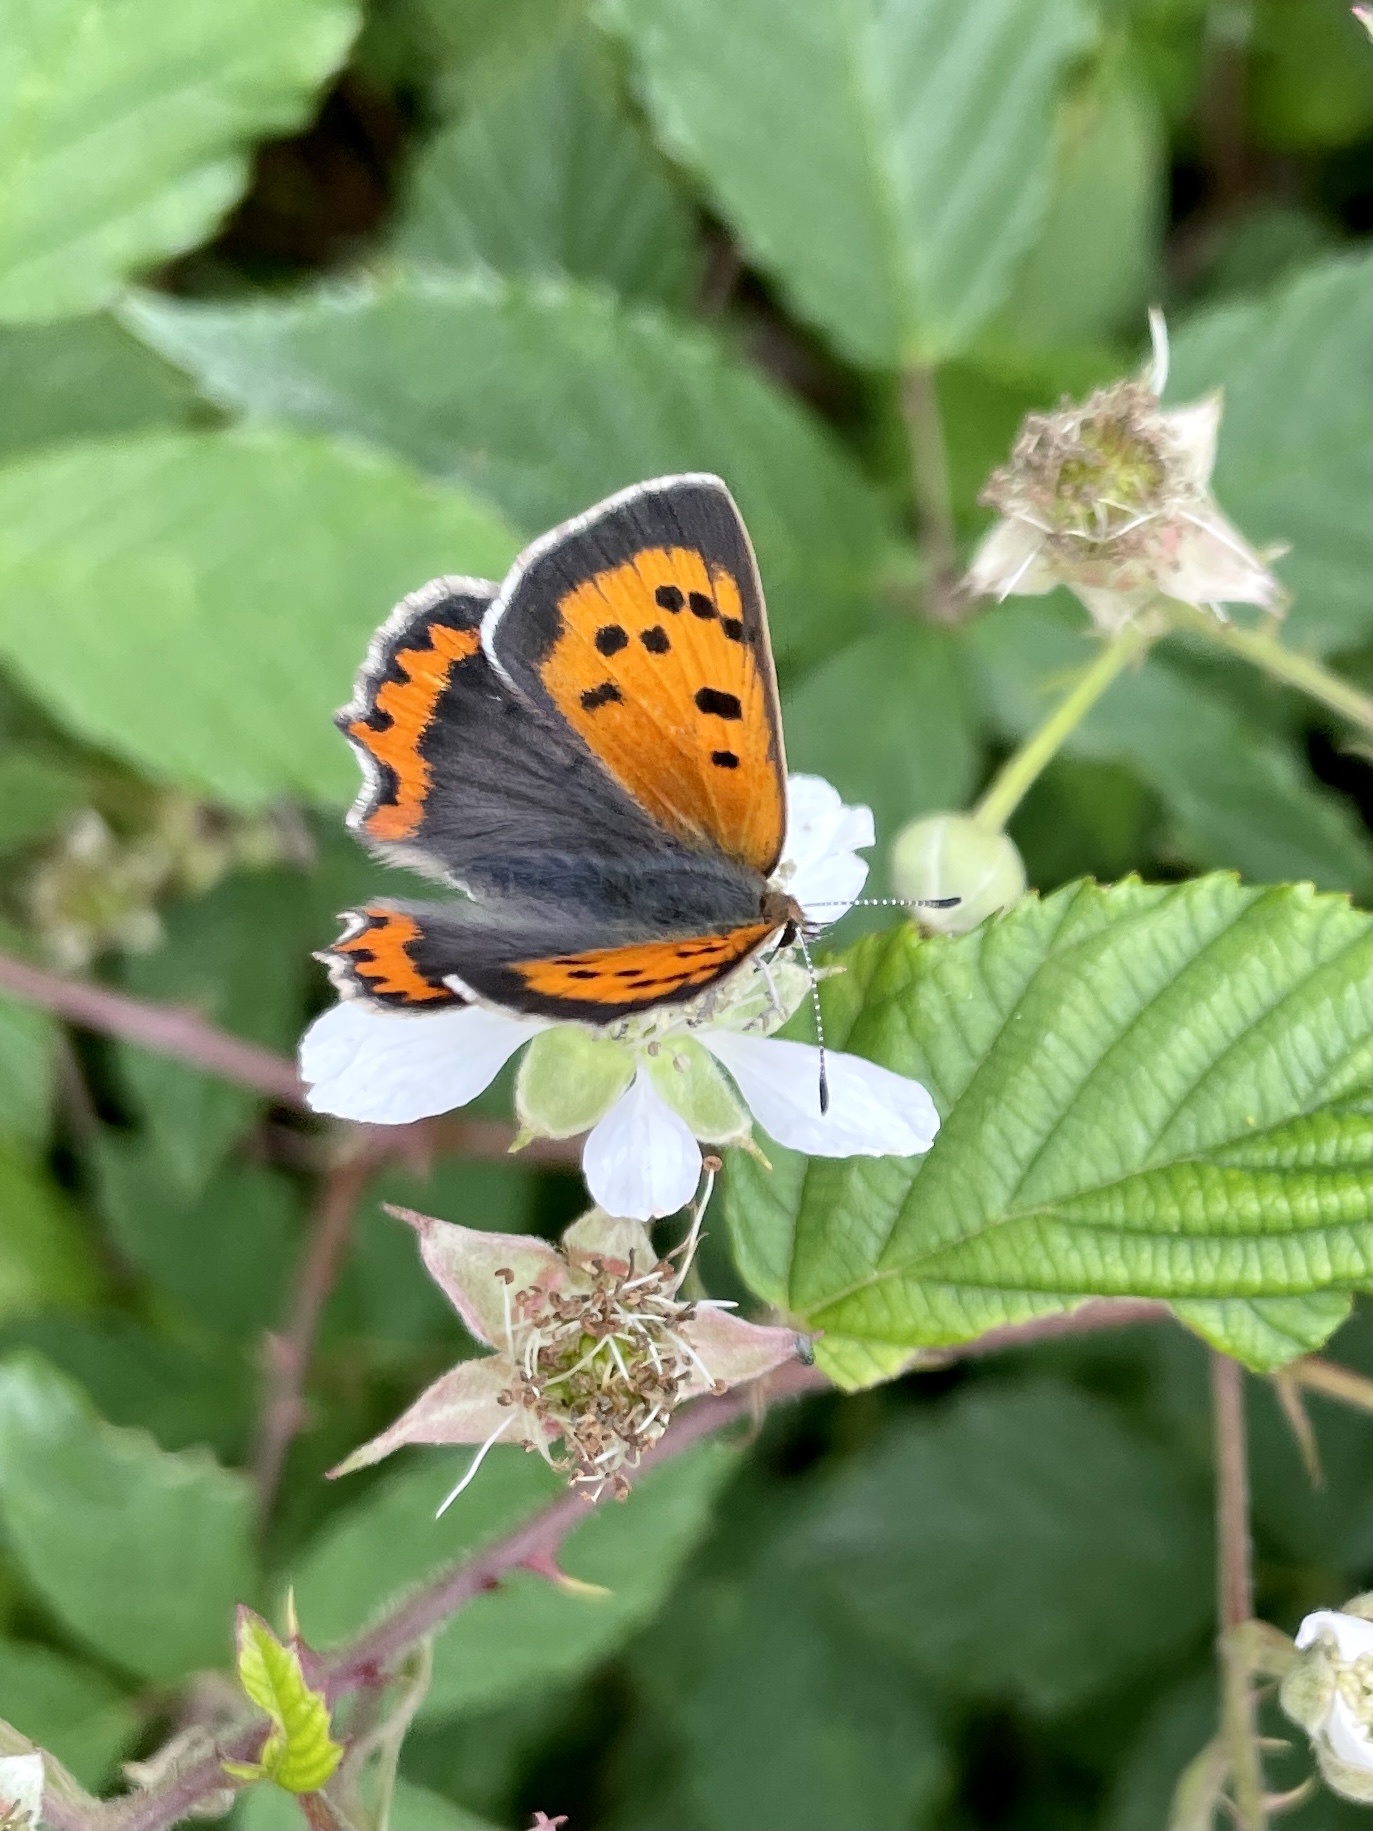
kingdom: Animalia
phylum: Arthropoda
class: Insecta
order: Lepidoptera
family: Lycaenidae
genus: Lycaena
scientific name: Lycaena phlaeas
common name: Small copper
